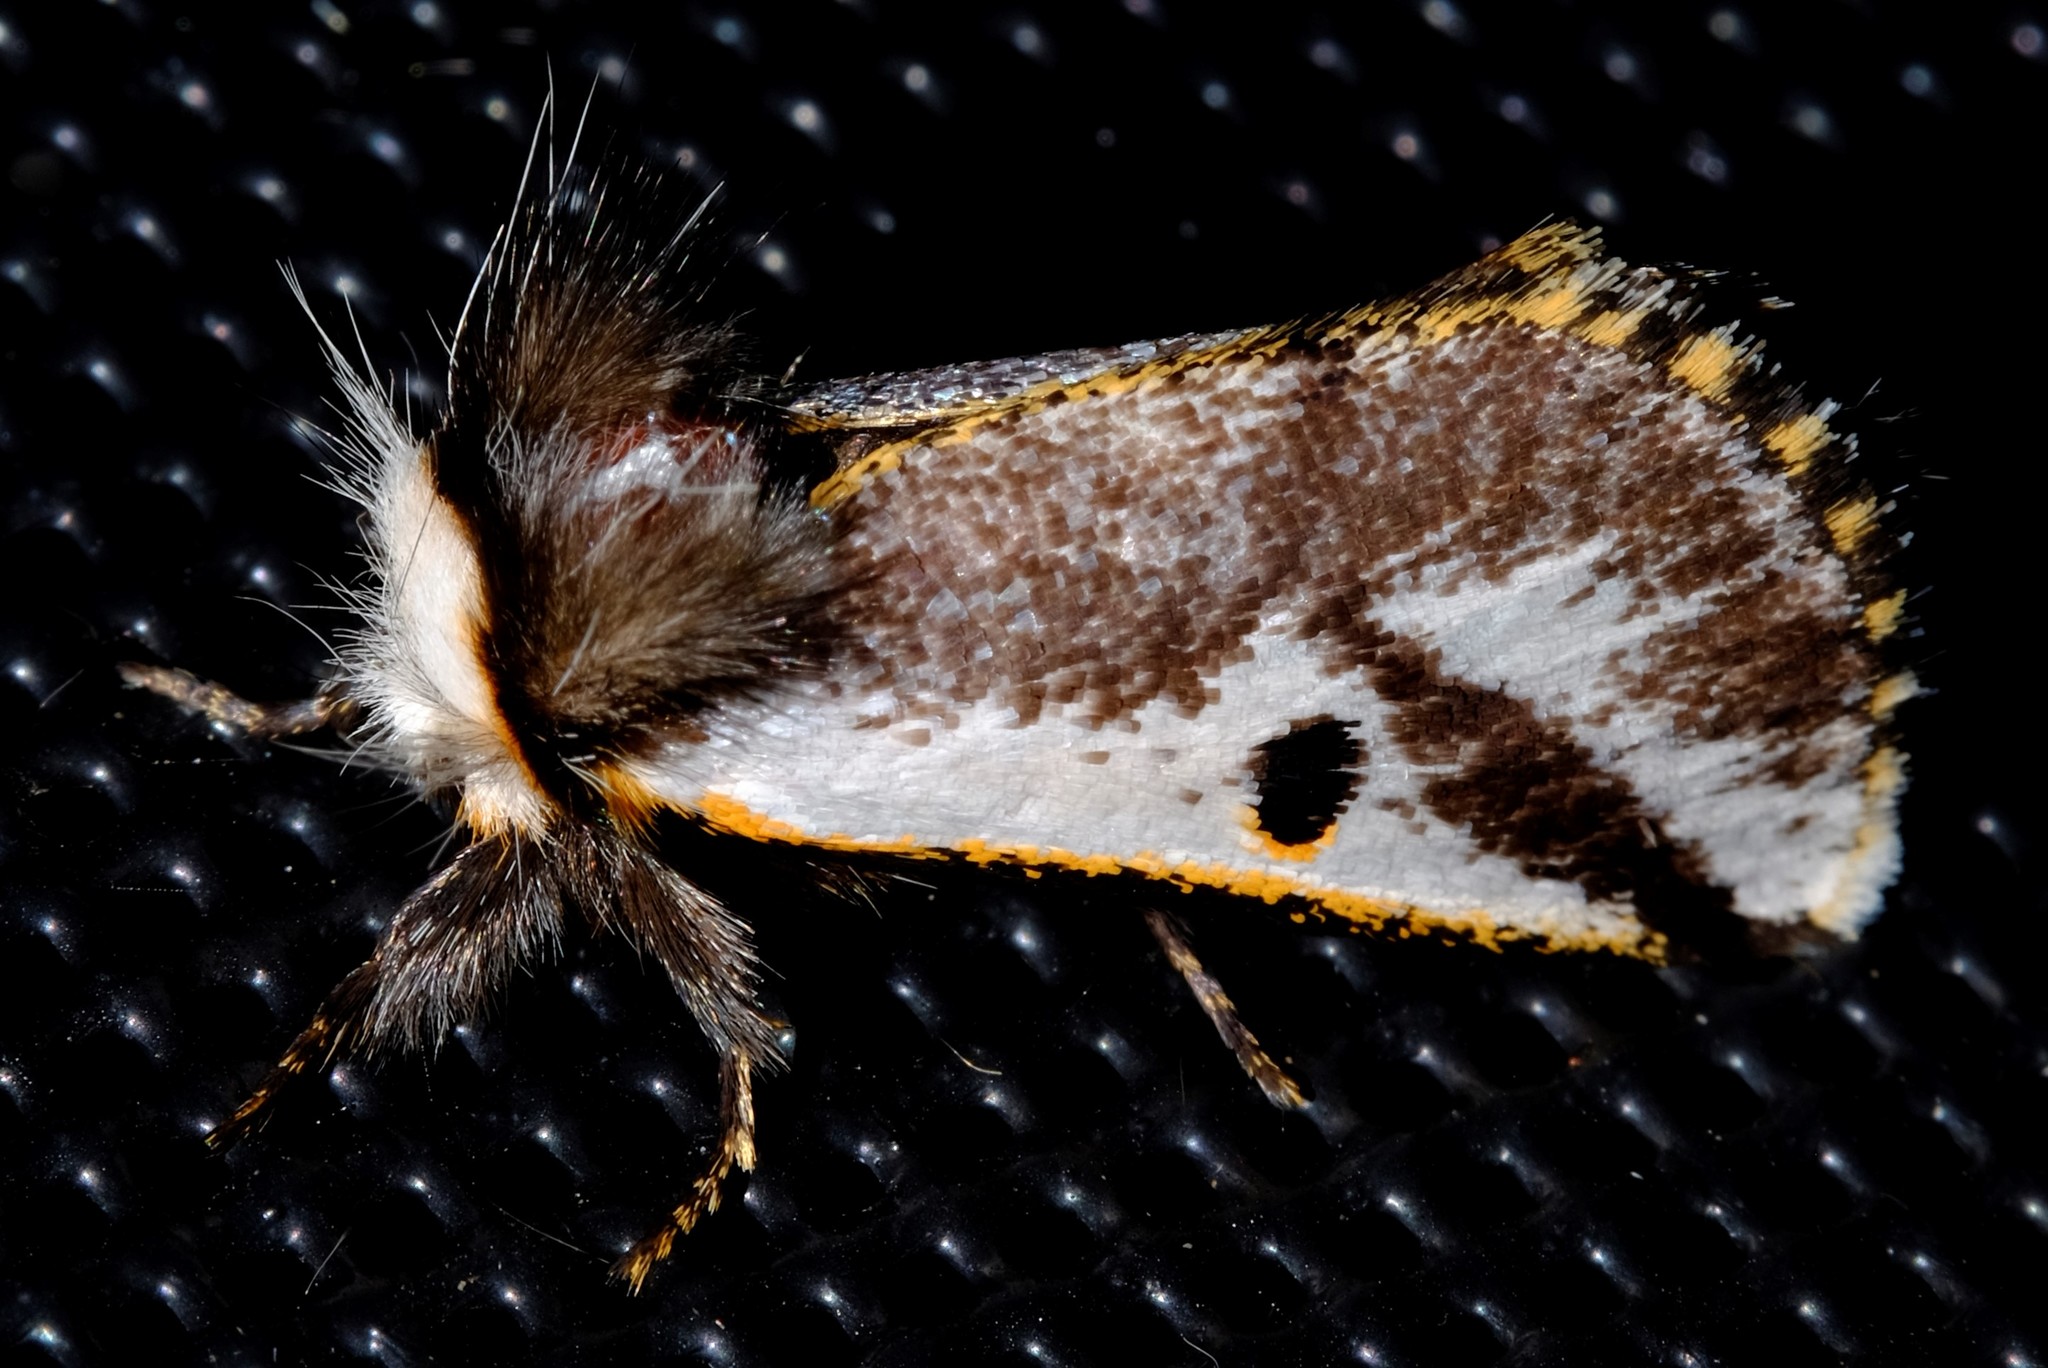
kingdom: Animalia
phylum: Arthropoda
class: Insecta
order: Lepidoptera
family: Notodontidae
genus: Epicoma
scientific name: Epicoma melanospila
